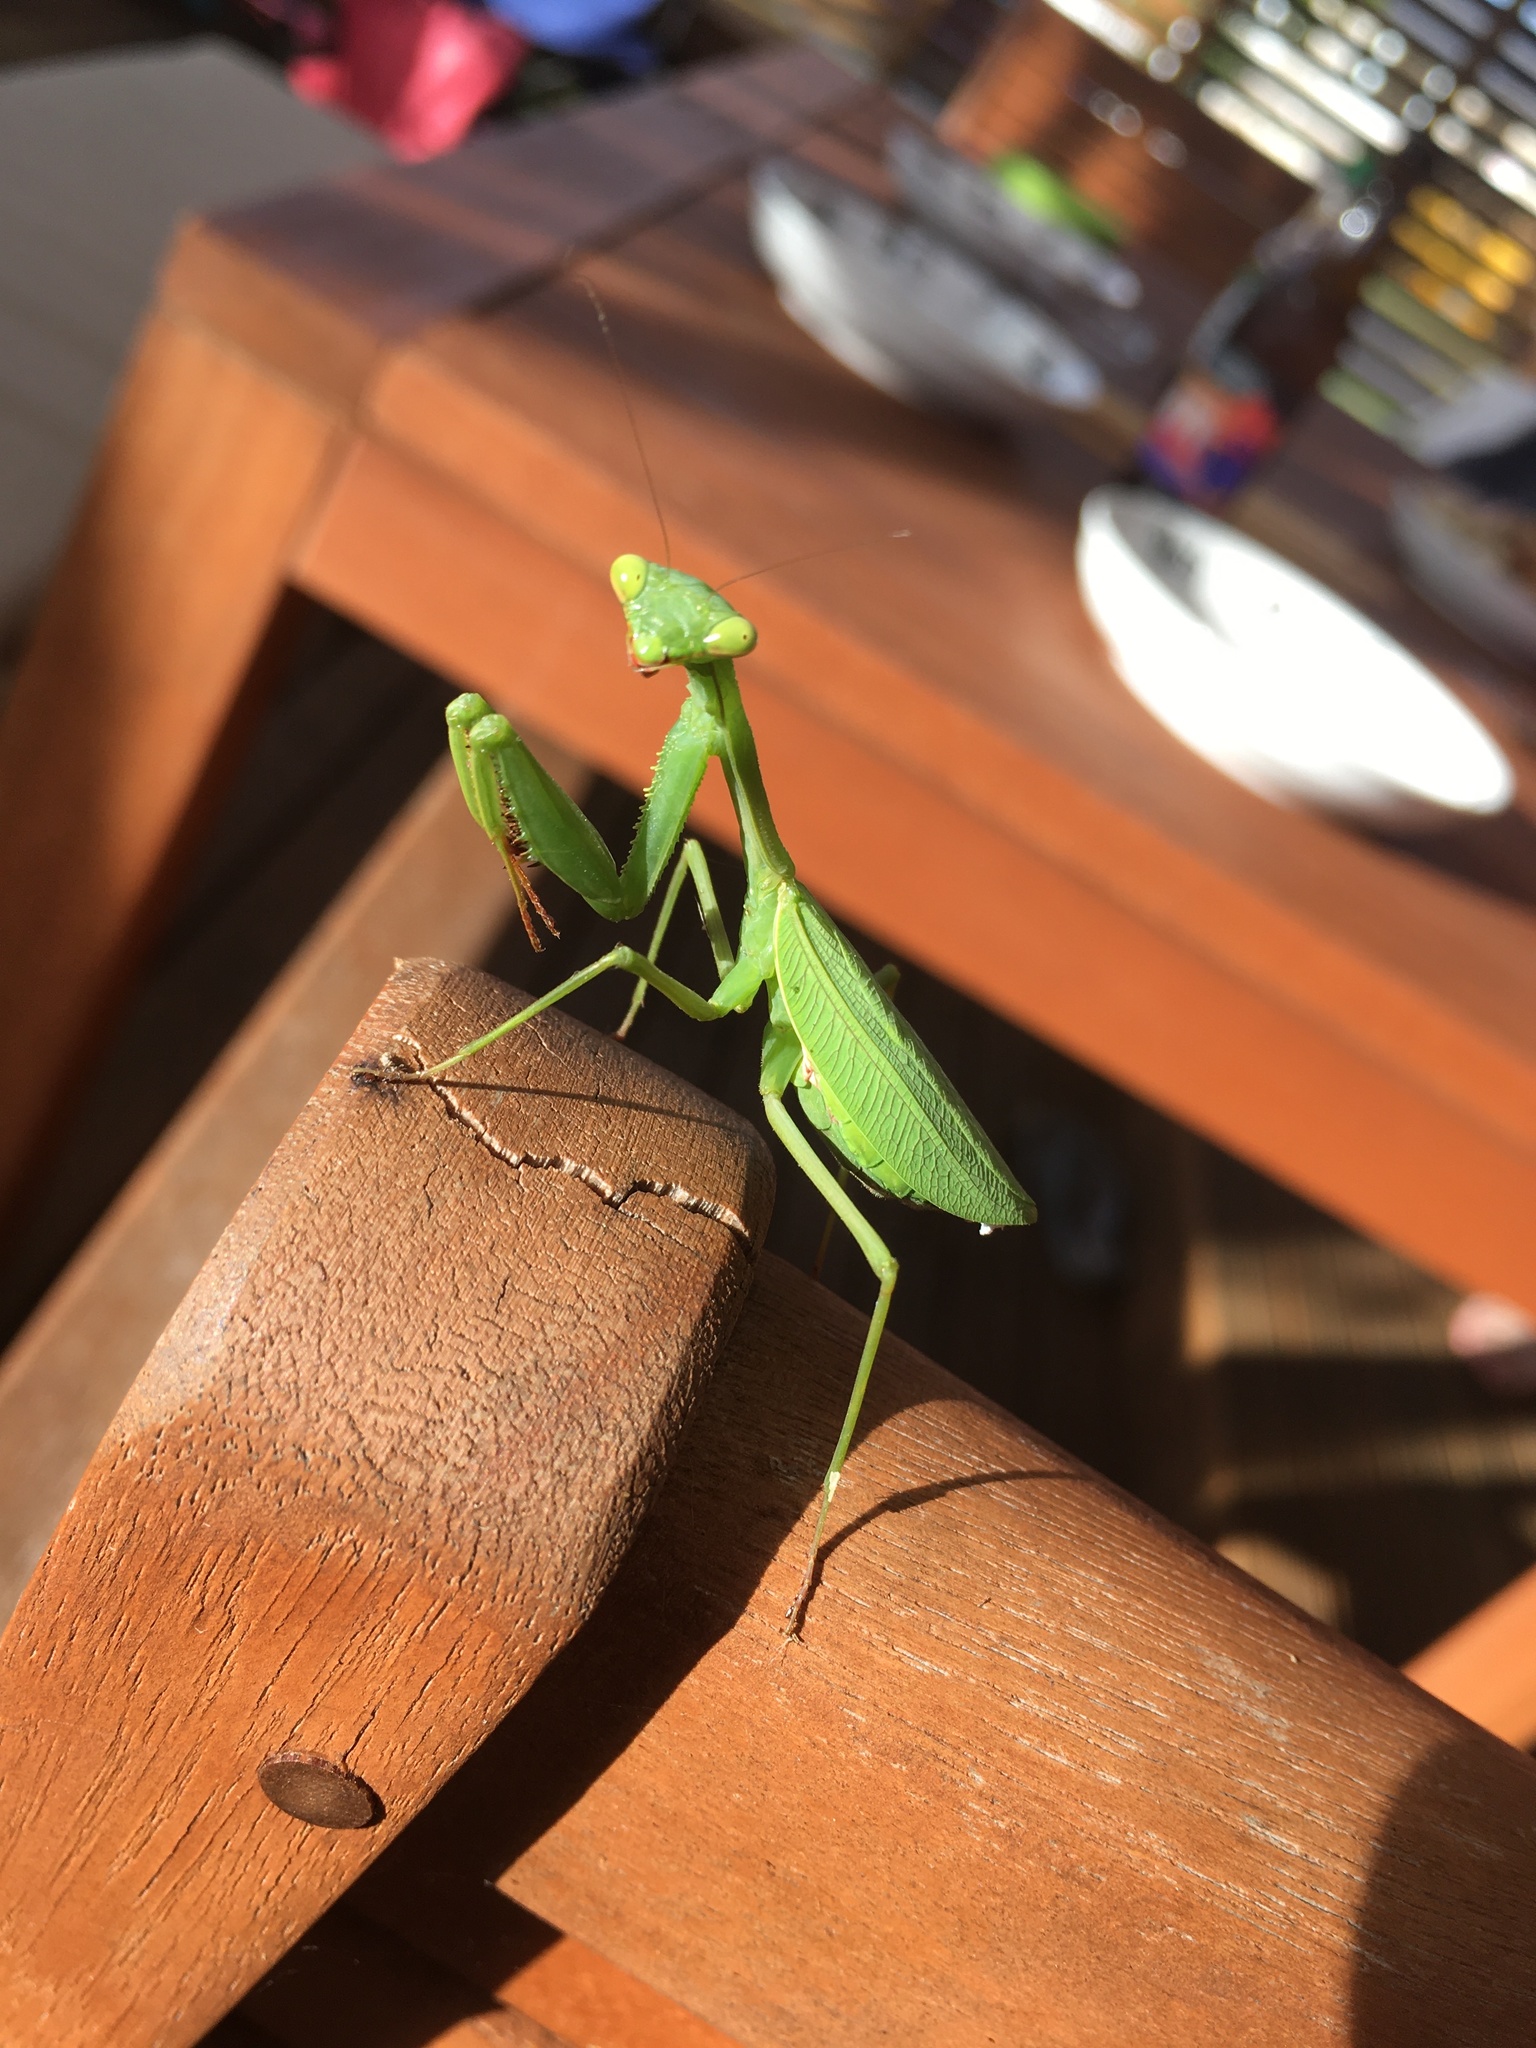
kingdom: Animalia
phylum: Arthropoda
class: Insecta
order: Mantodea
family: Miomantidae
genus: Miomantis
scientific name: Miomantis caffra
